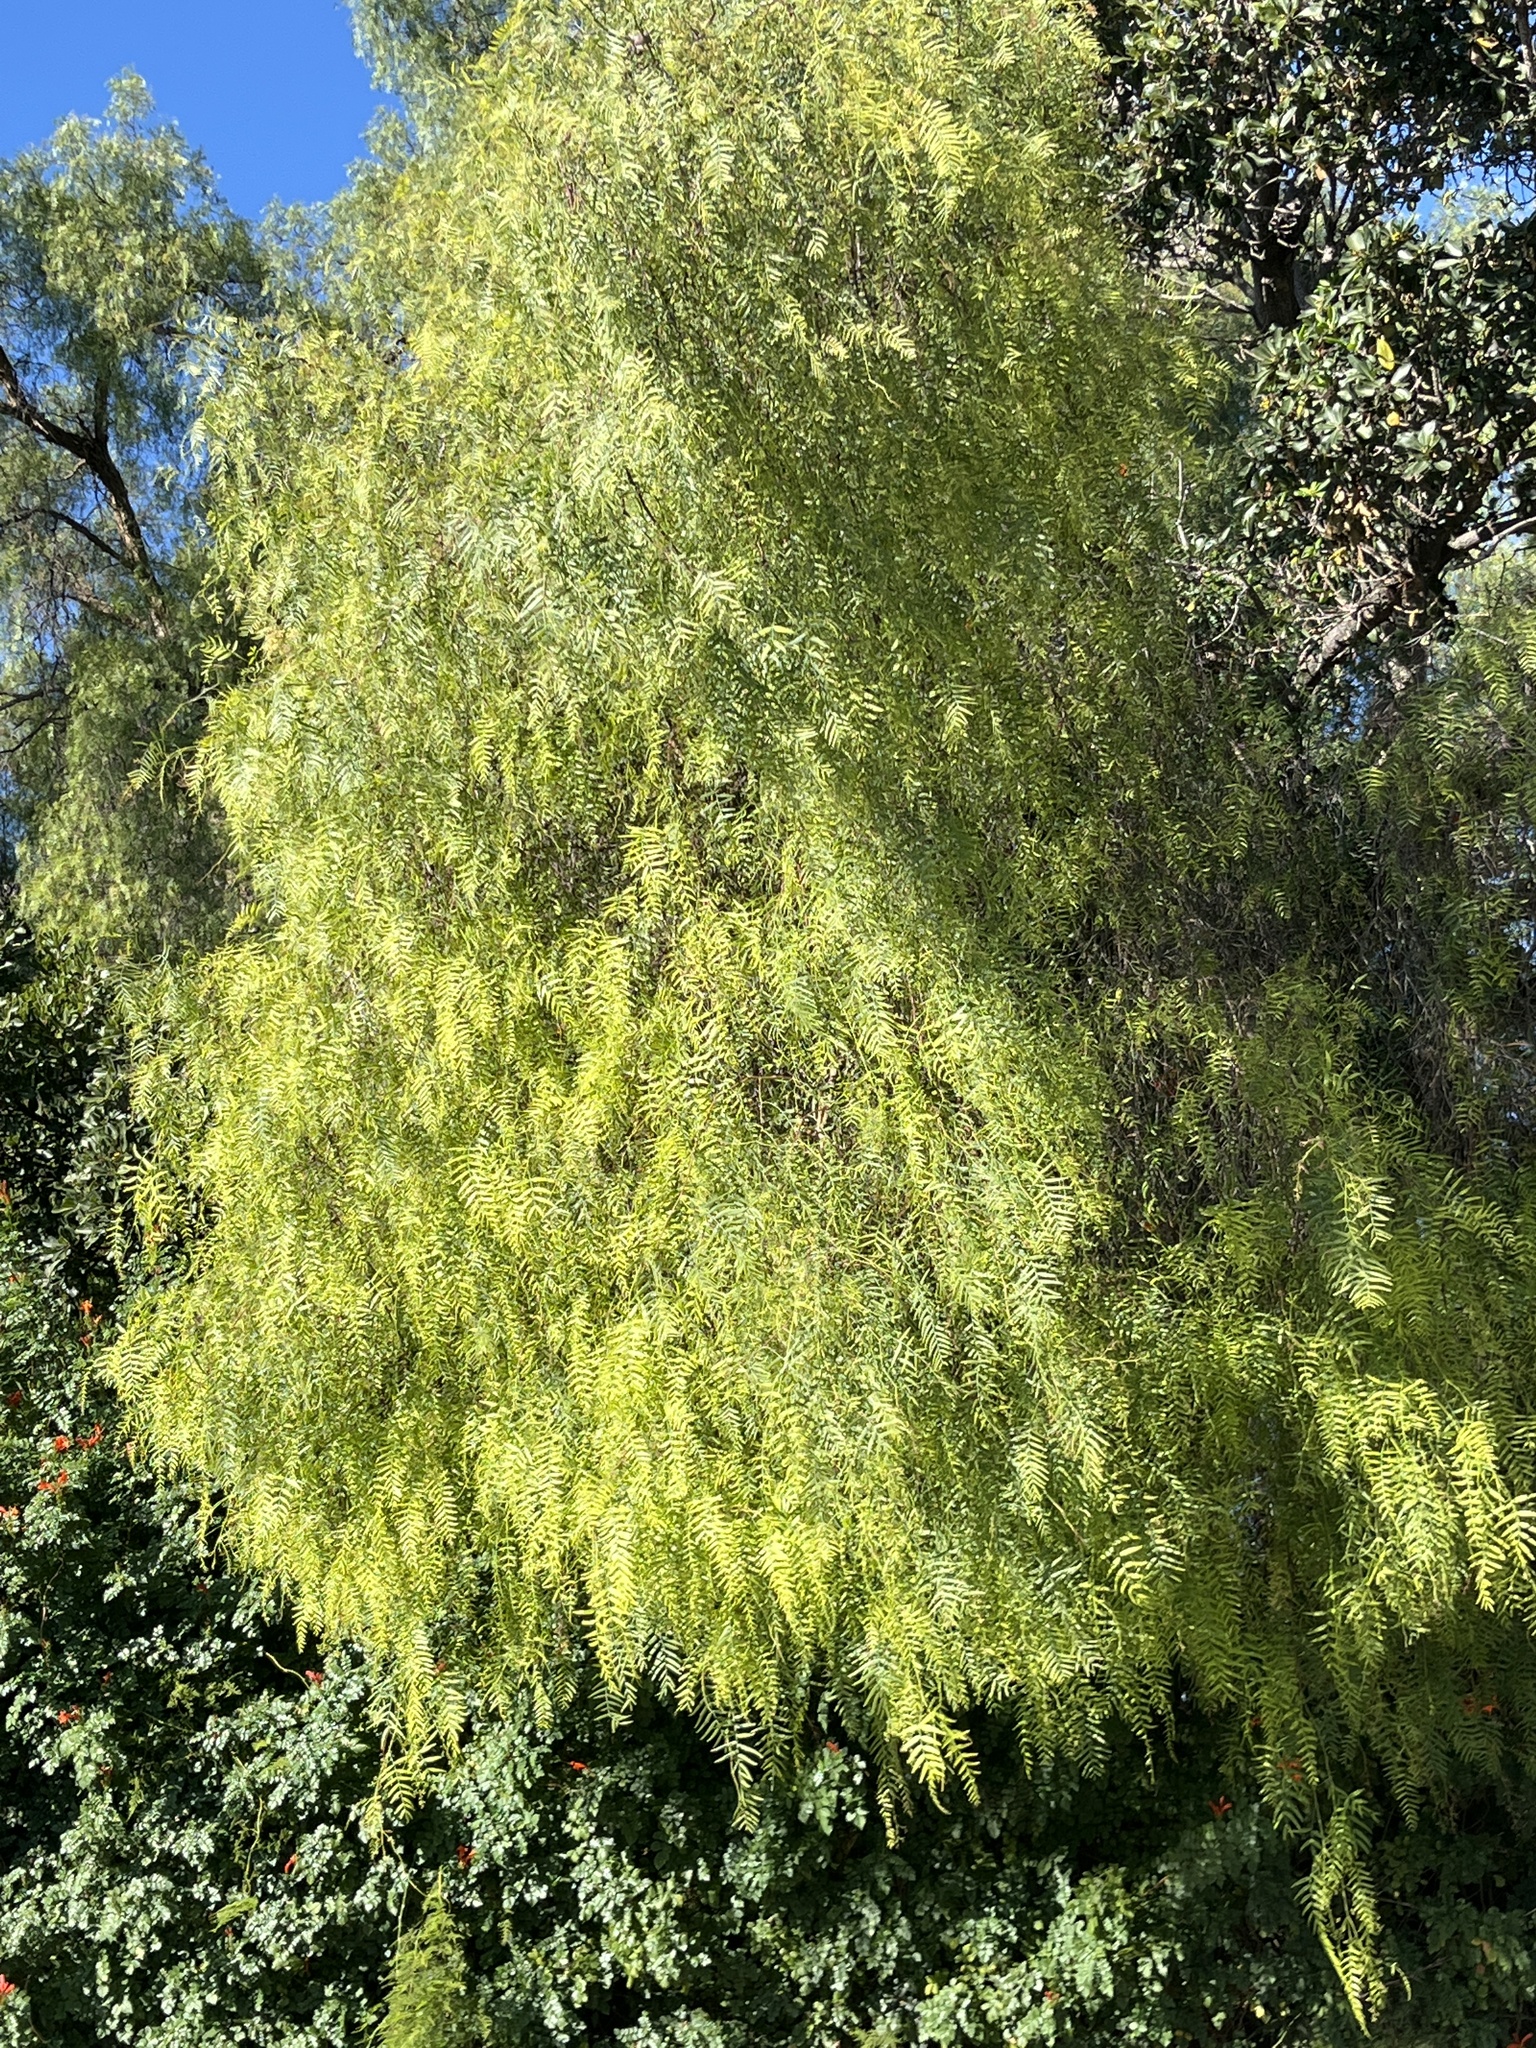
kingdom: Plantae
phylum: Tracheophyta
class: Magnoliopsida
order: Sapindales
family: Anacardiaceae
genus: Schinus
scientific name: Schinus molle
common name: Peruvian peppertree
